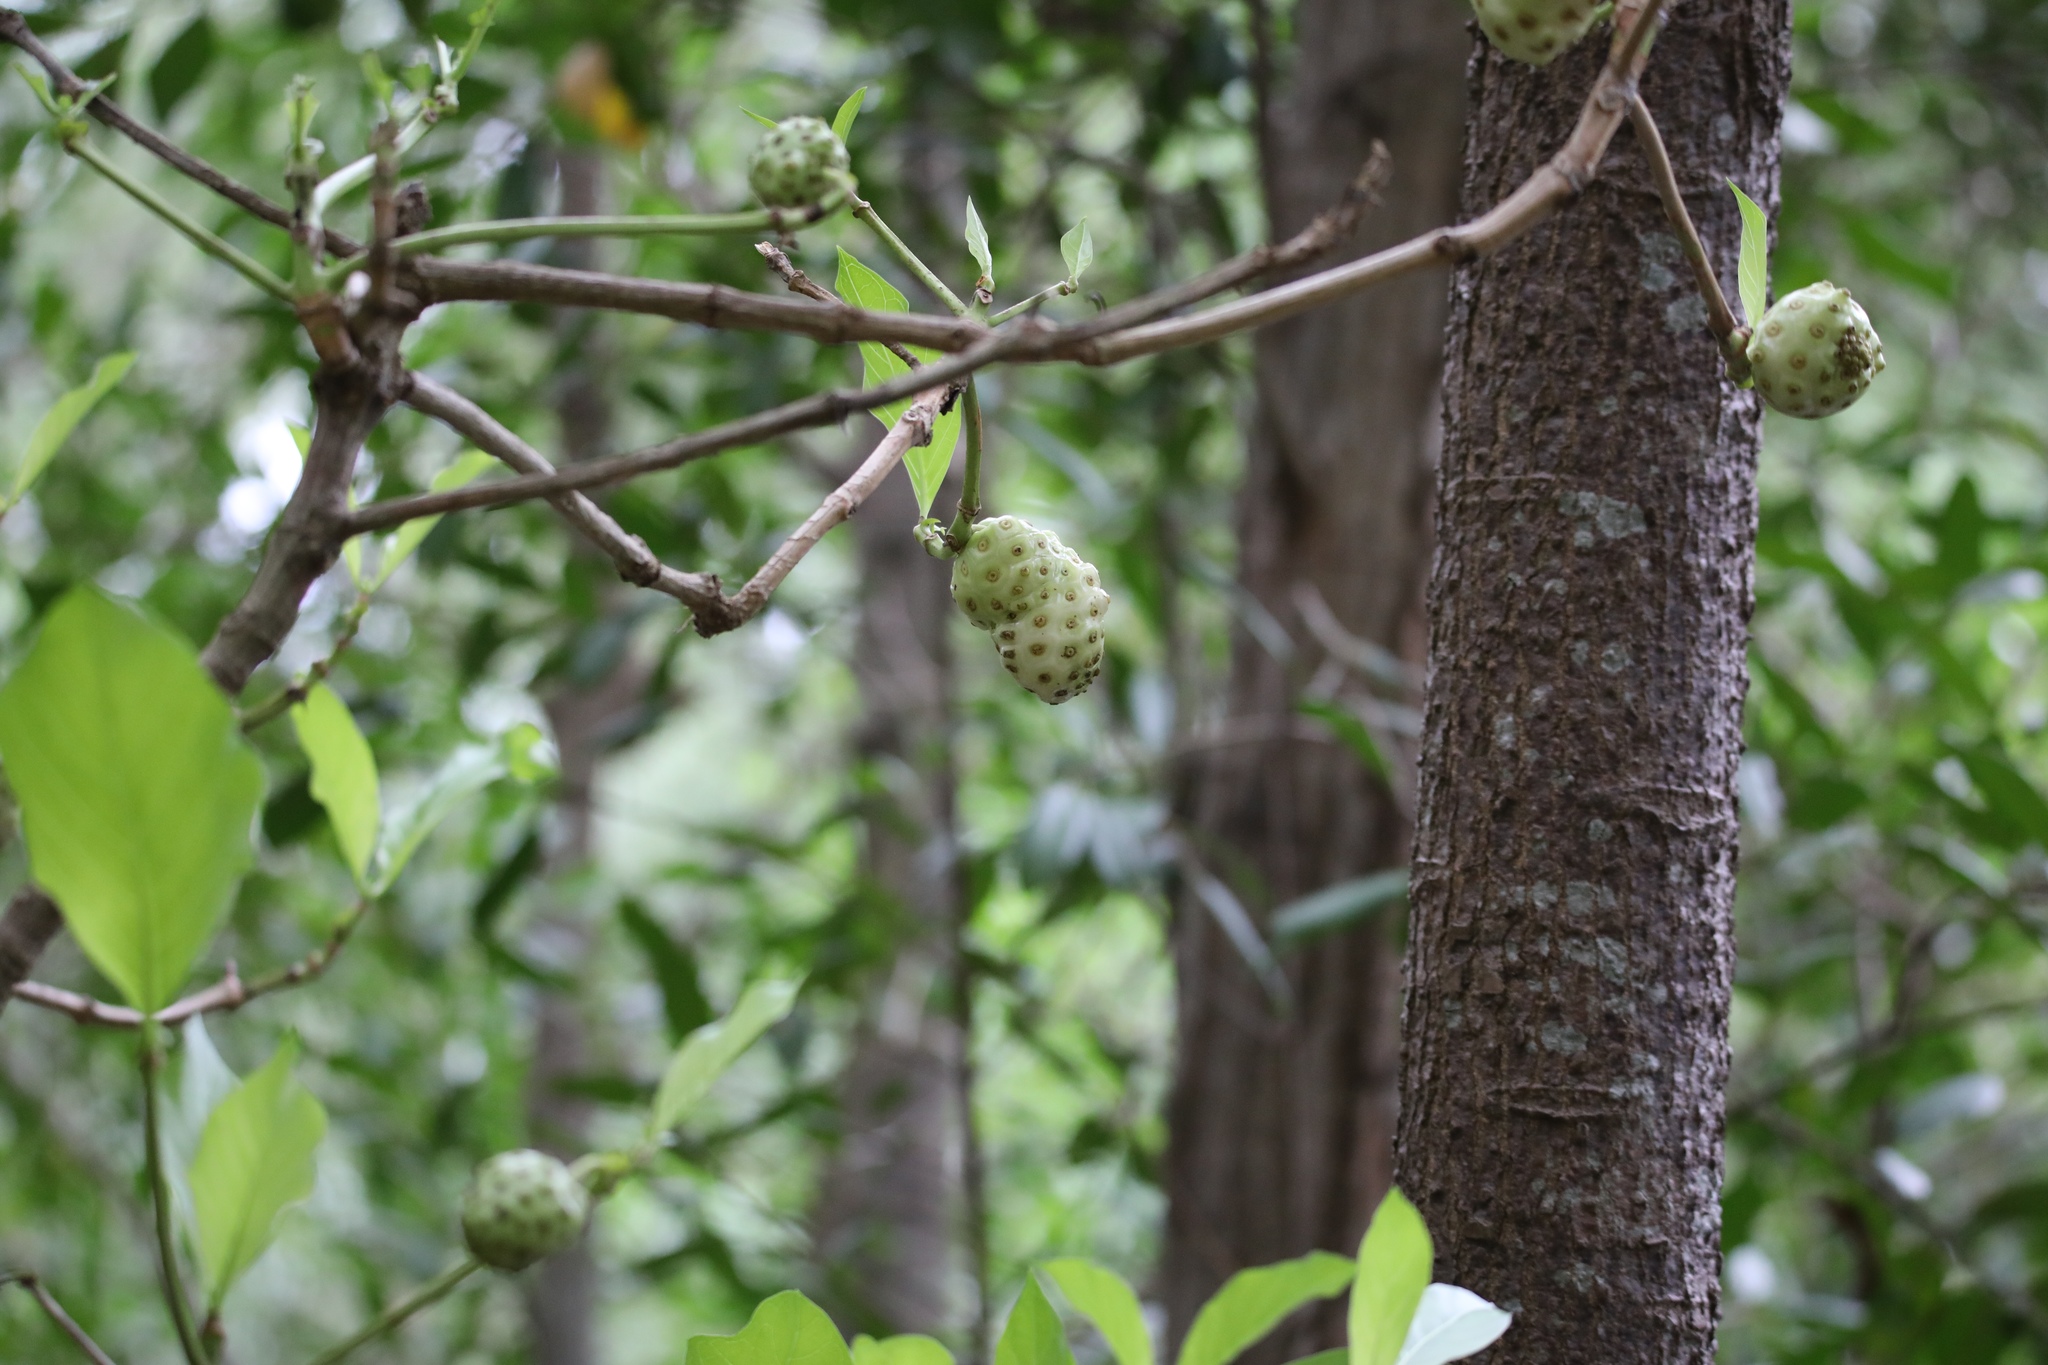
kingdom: Plantae
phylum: Tracheophyta
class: Magnoliopsida
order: Gentianales
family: Rubiaceae
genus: Morinda
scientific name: Morinda panamensis
